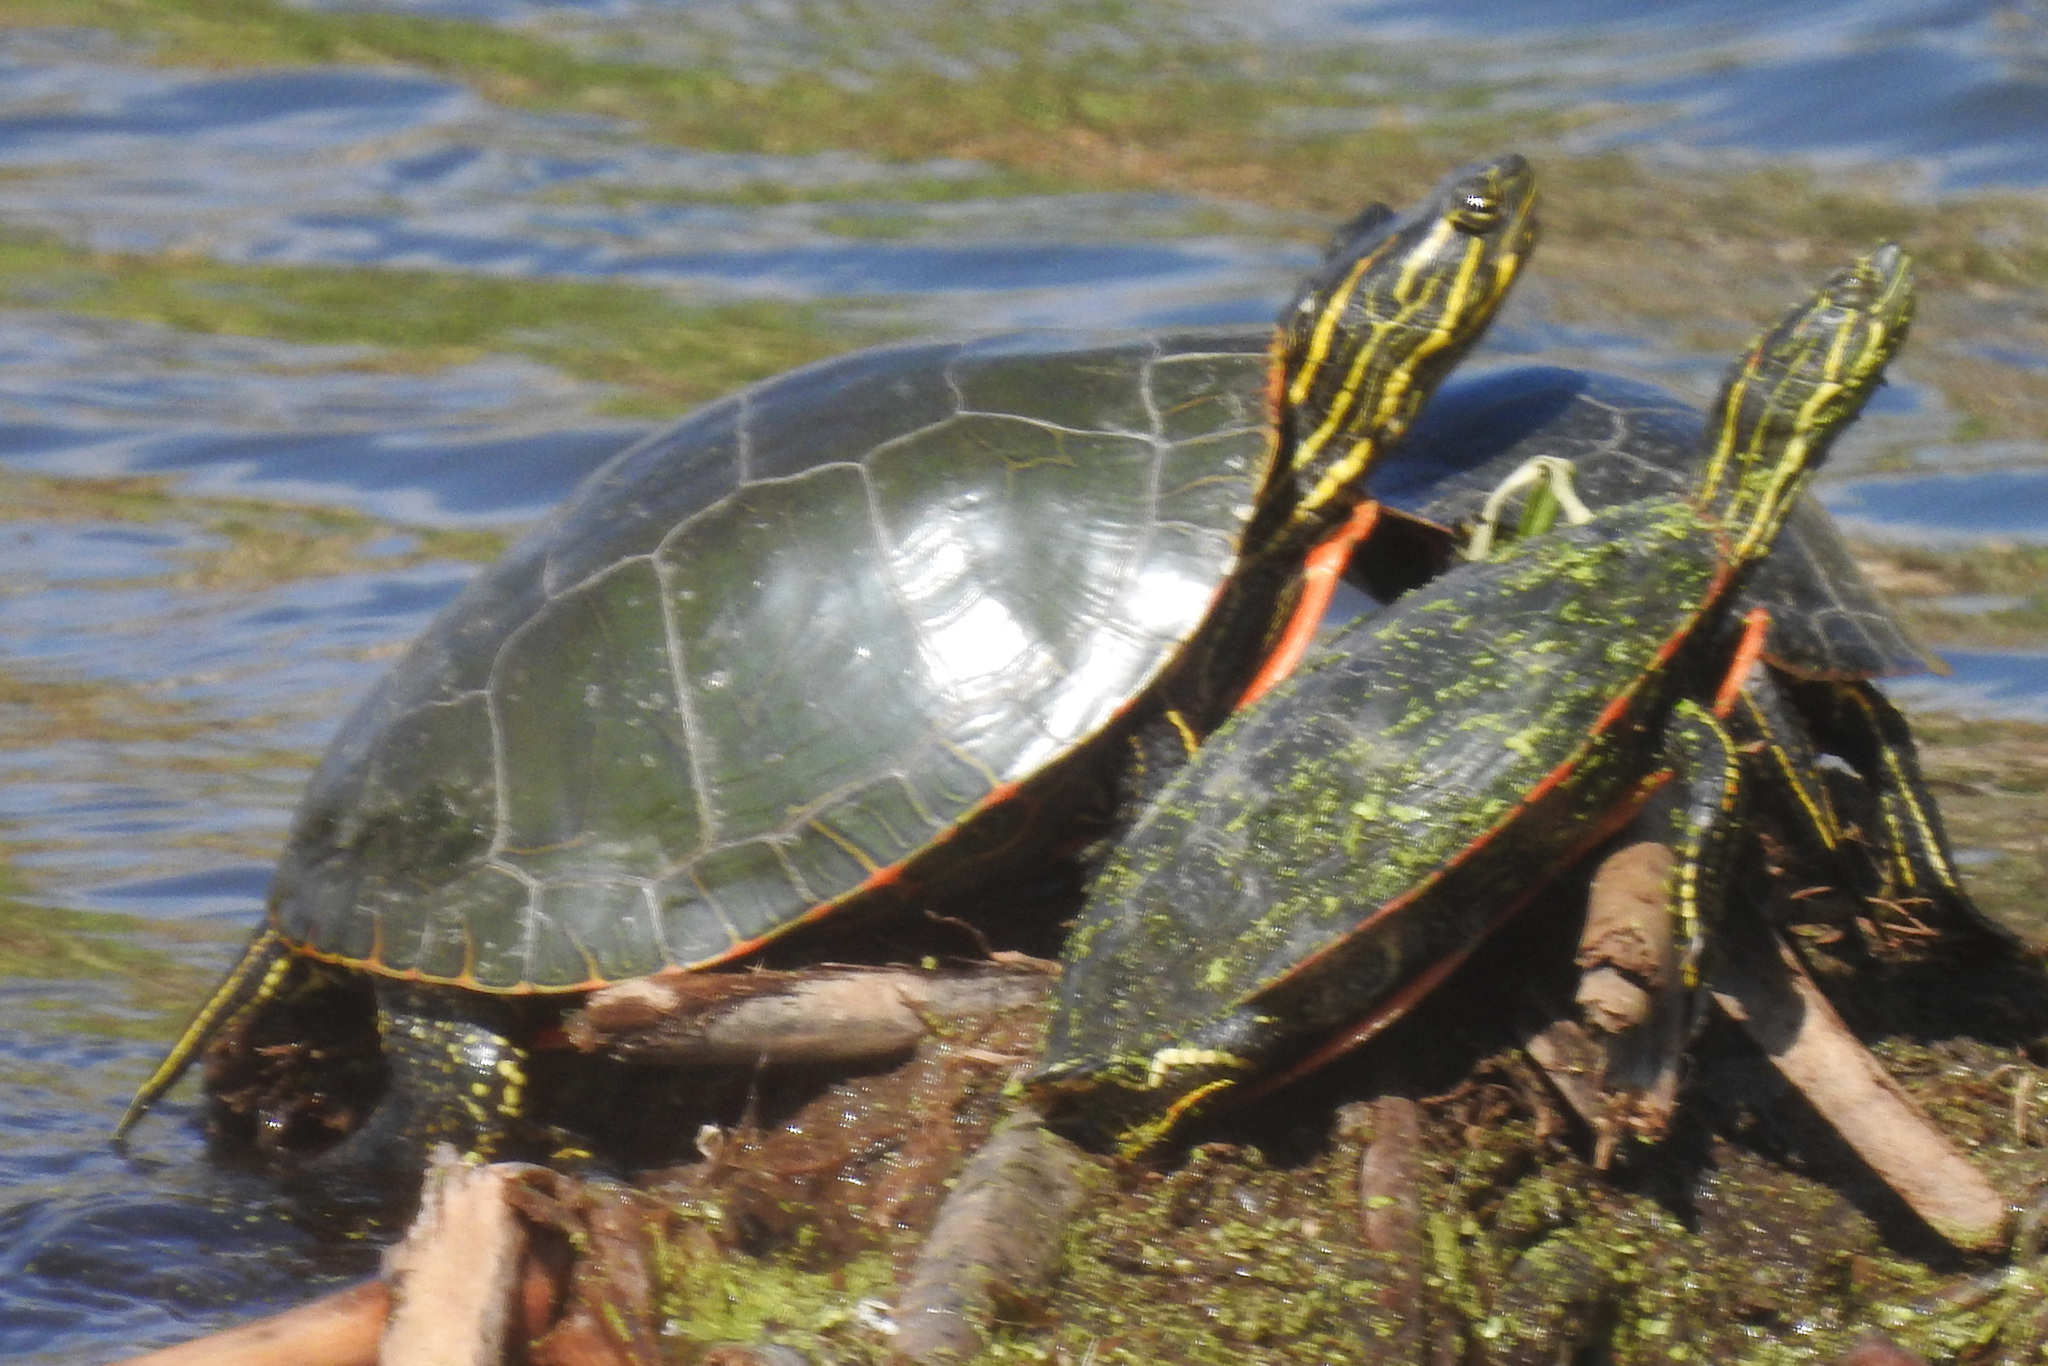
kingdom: Animalia
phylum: Chordata
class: Testudines
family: Emydidae
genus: Chrysemys
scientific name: Chrysemys picta
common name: Painted turtle
